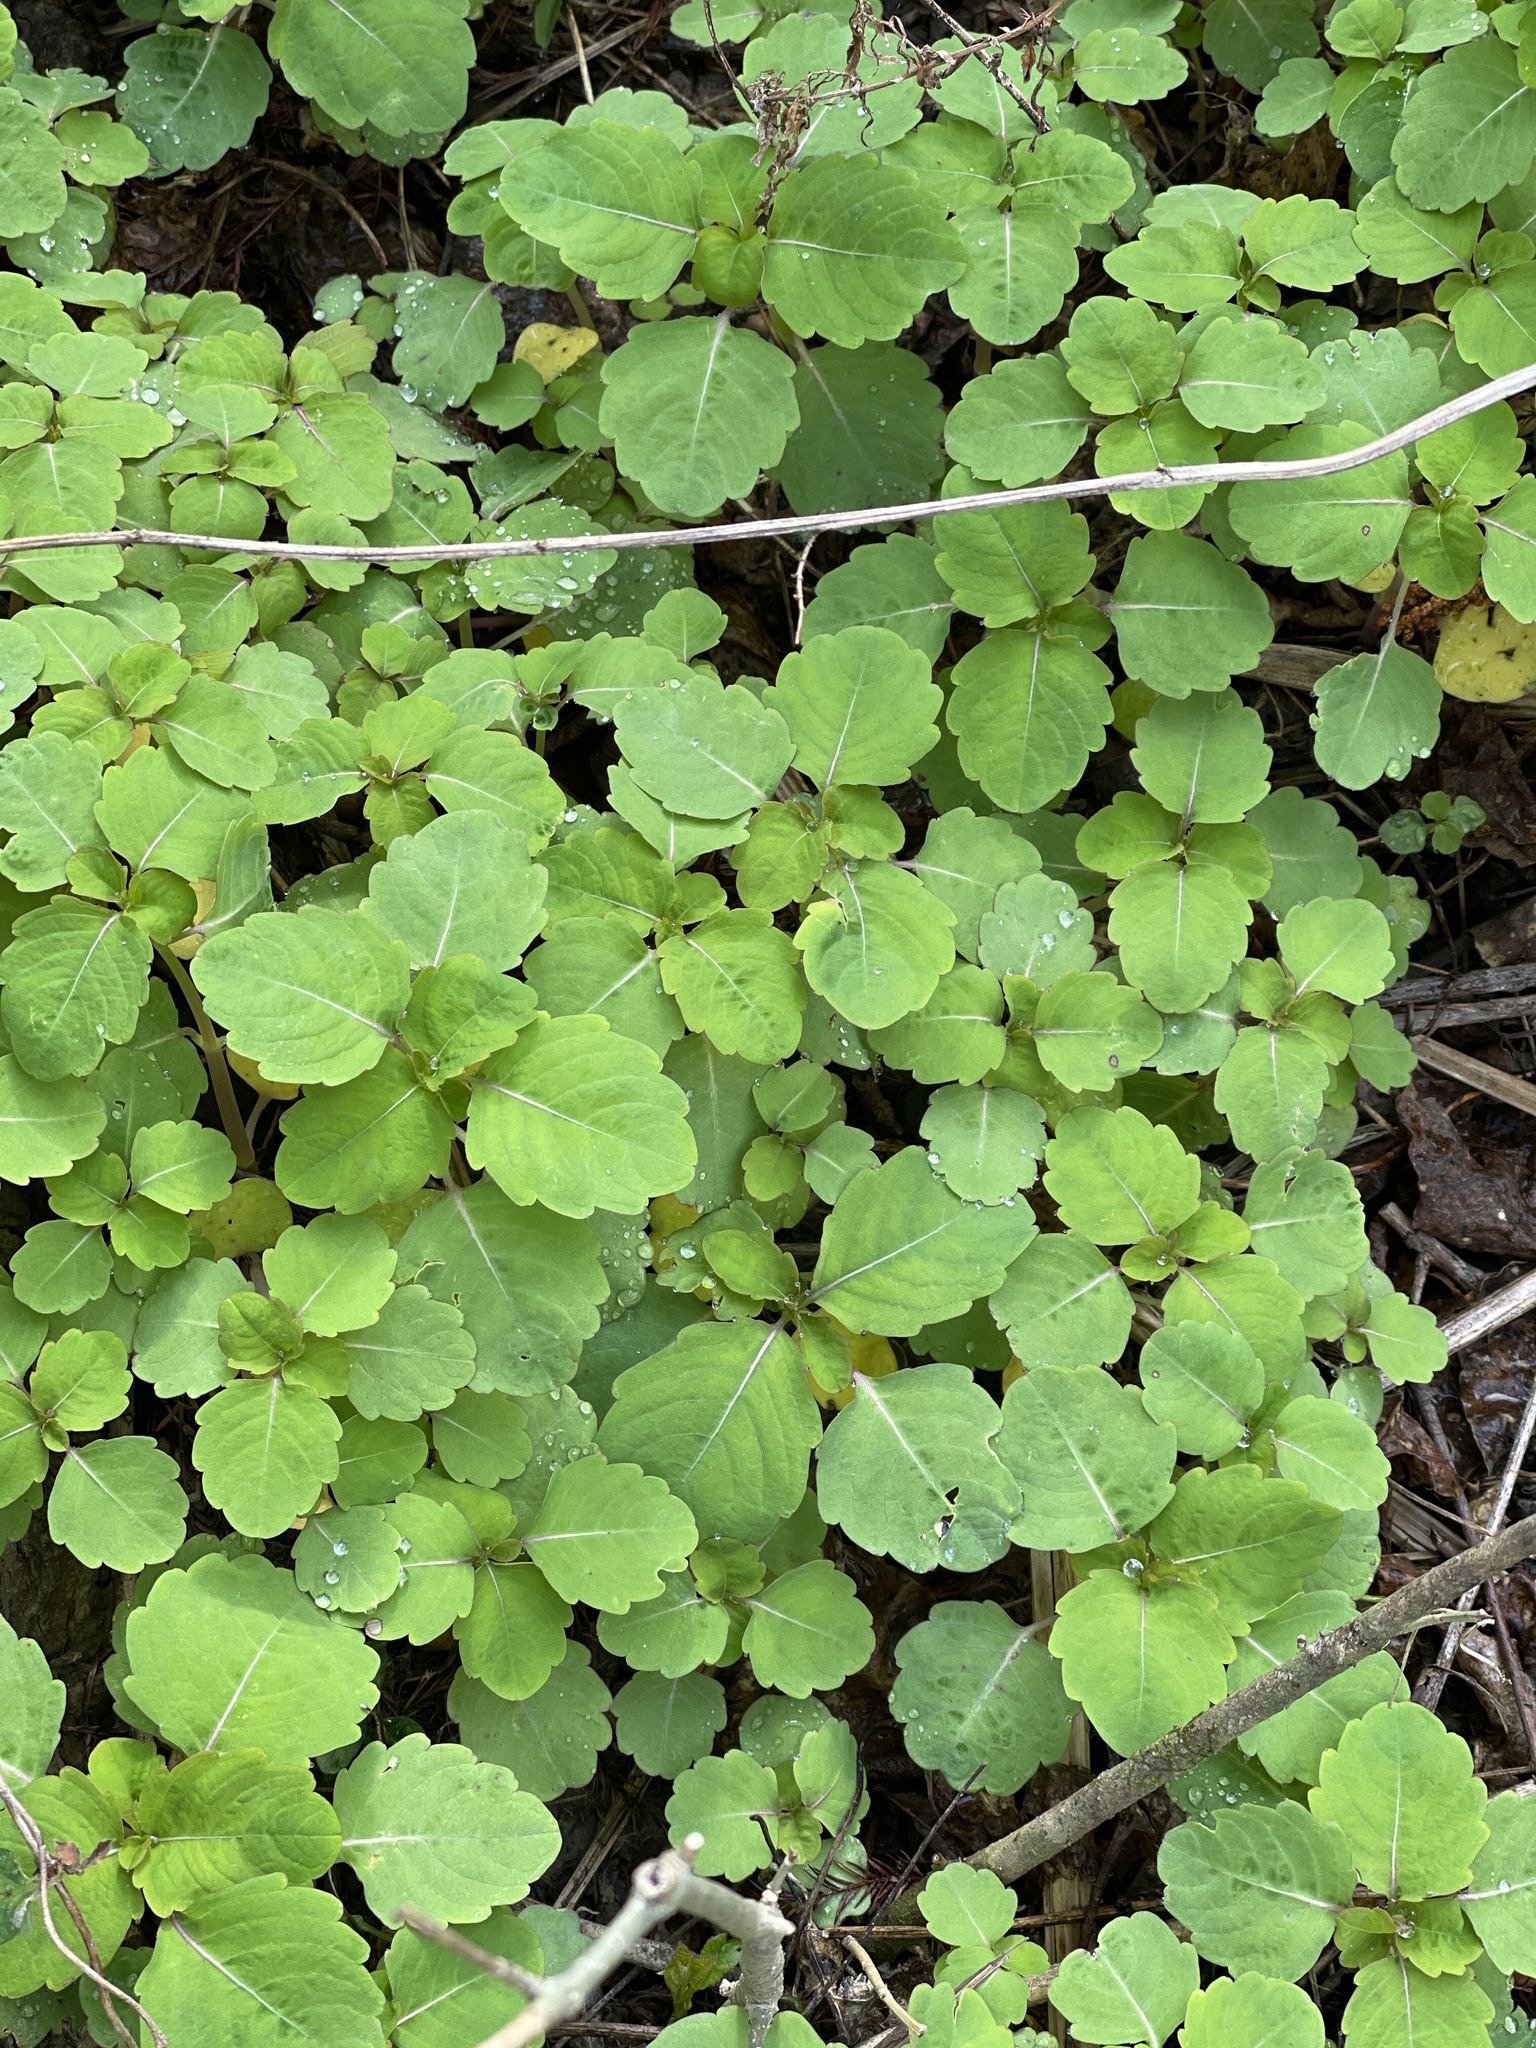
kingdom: Plantae
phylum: Tracheophyta
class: Magnoliopsida
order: Ericales
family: Balsaminaceae
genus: Impatiens
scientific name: Impatiens capensis
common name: Orange balsam
